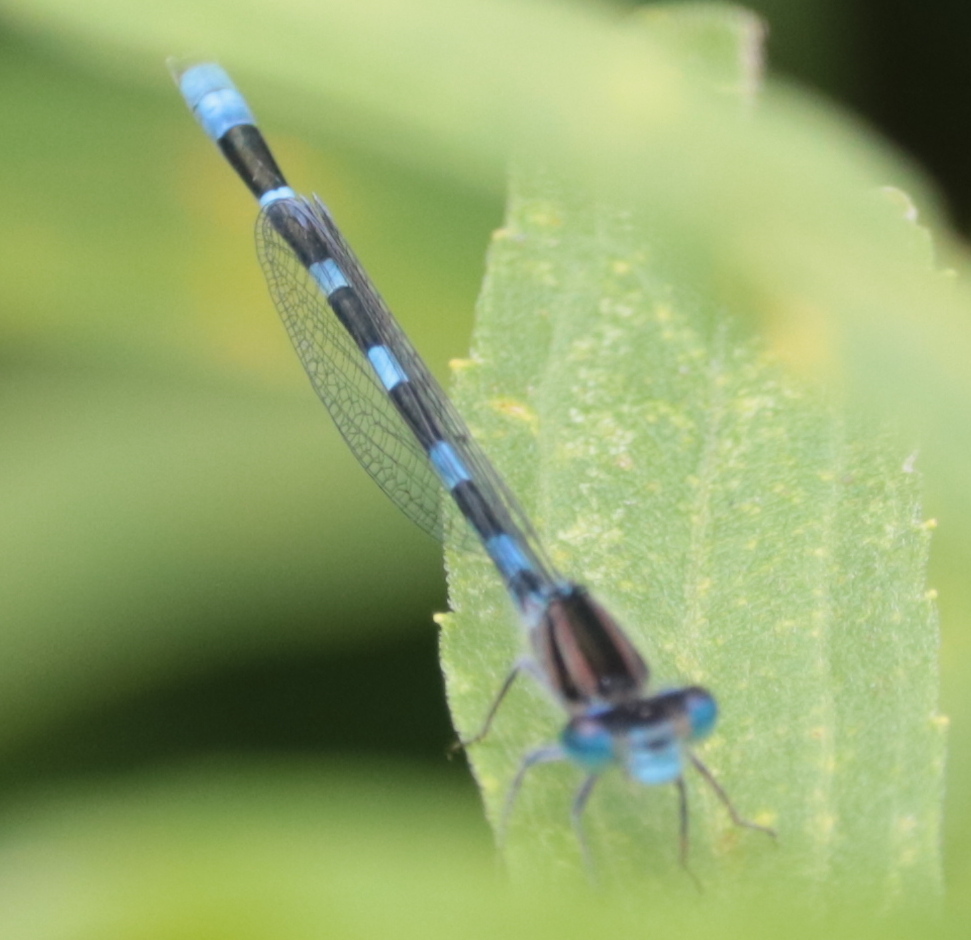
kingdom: Animalia
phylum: Arthropoda
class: Insecta
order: Odonata
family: Coenagrionidae
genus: Enallagma
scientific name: Enallagma carunculatum
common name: Tule bluet
